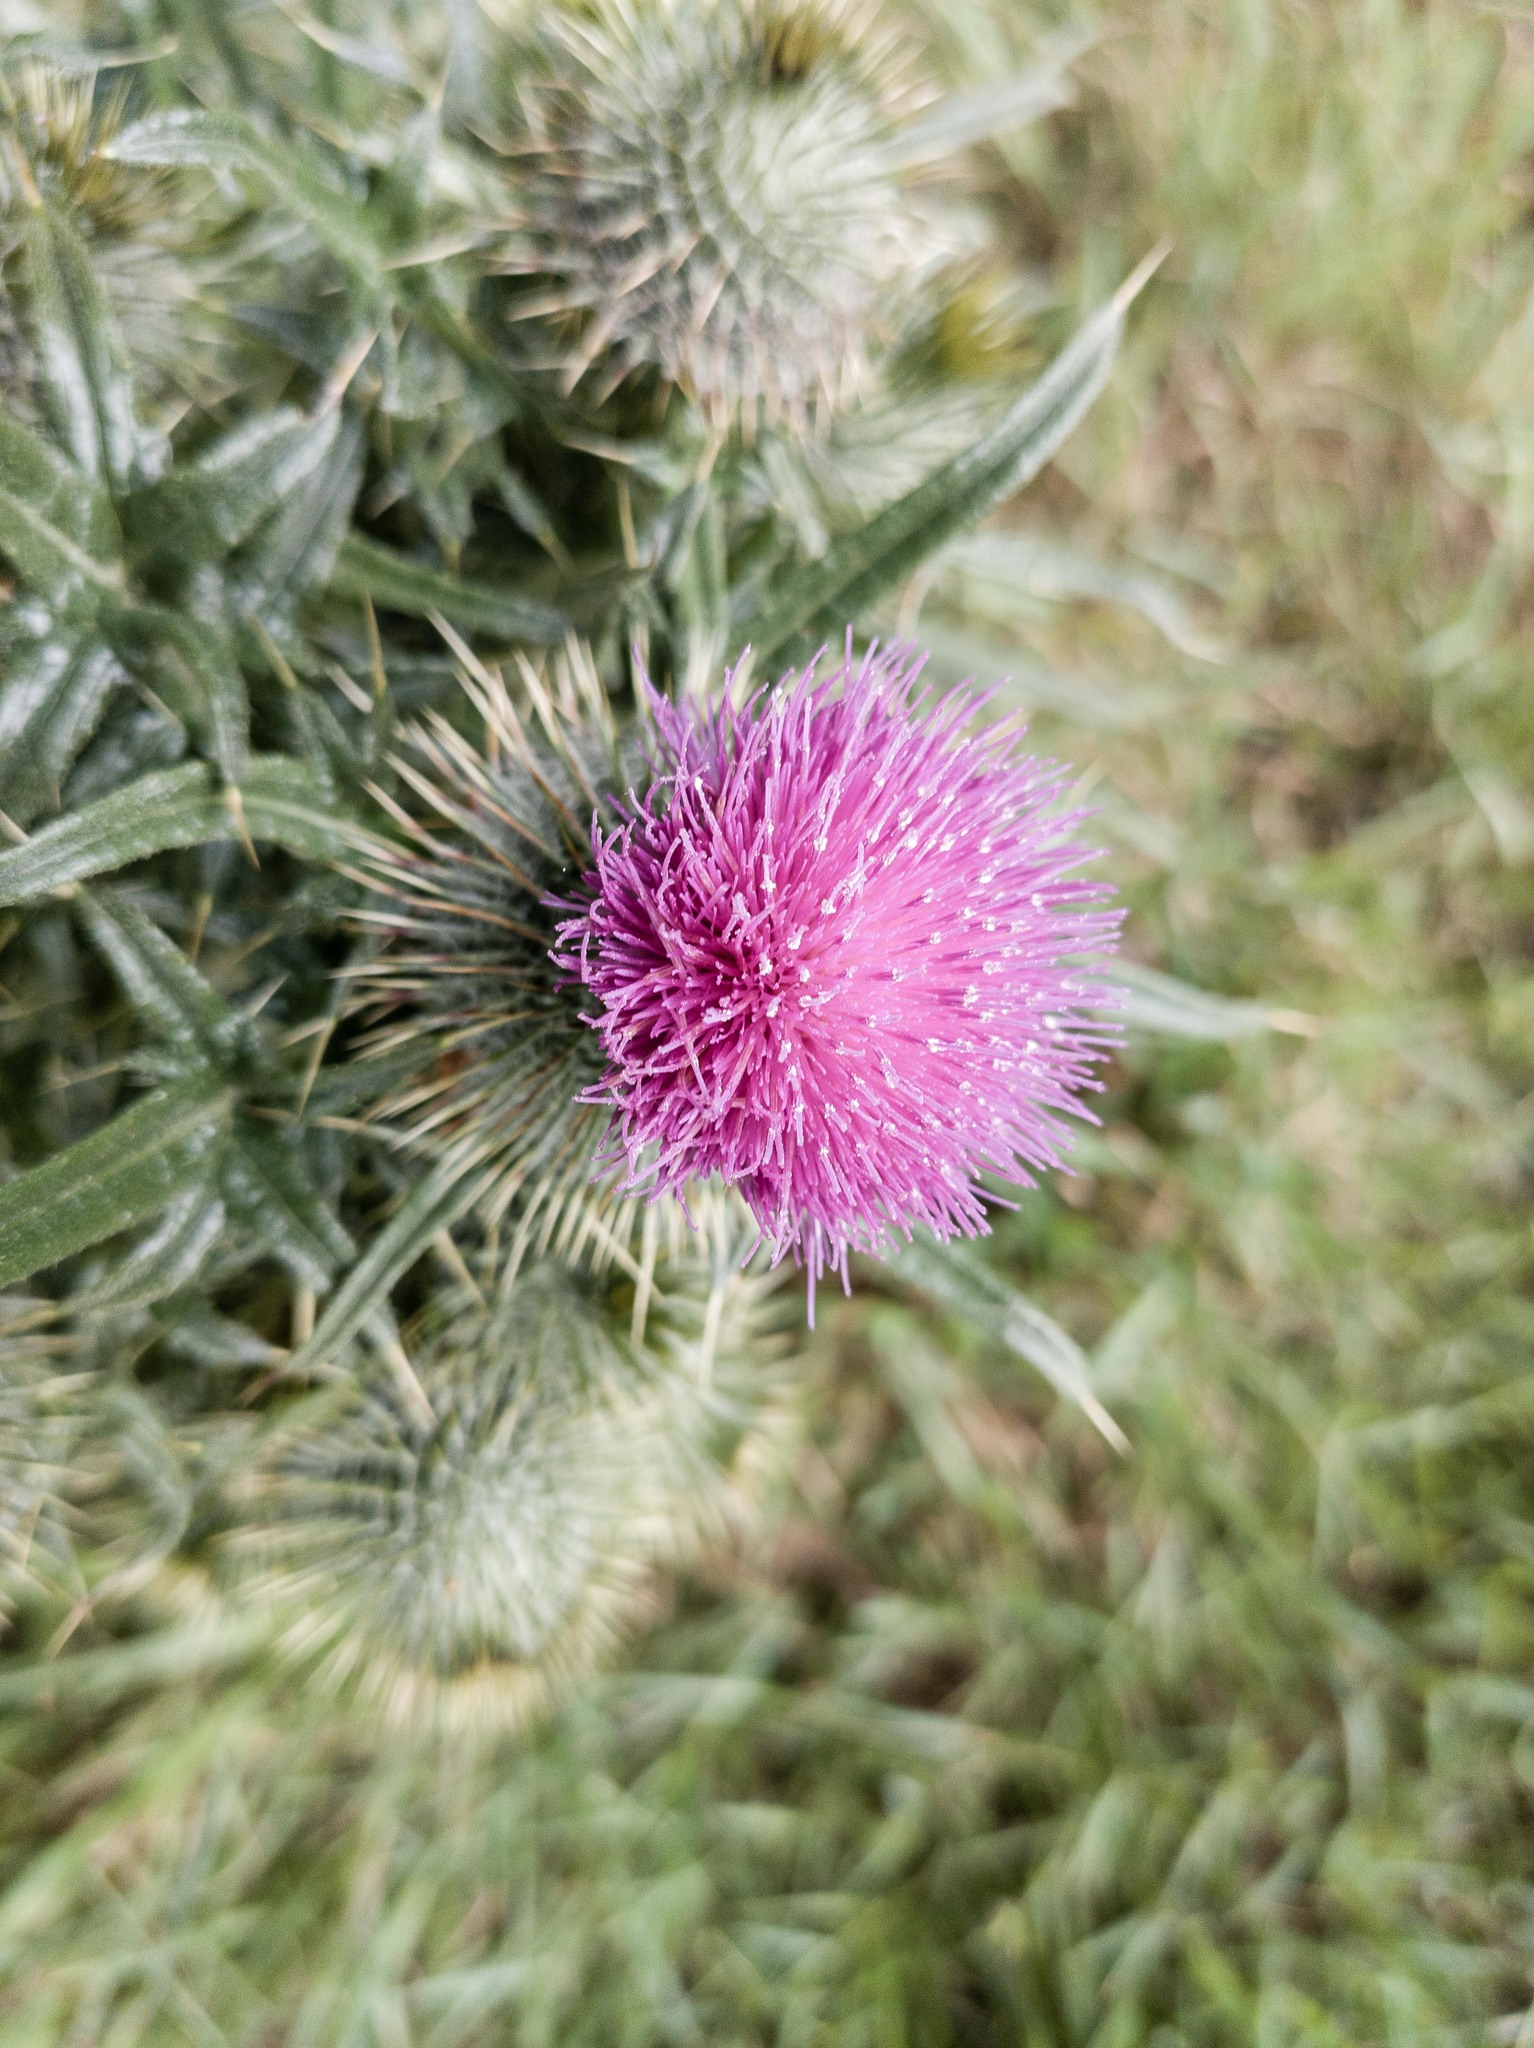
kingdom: Plantae
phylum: Tracheophyta
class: Magnoliopsida
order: Asterales
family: Asteraceae
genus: Cirsium
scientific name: Cirsium vulgare
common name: Bull thistle
